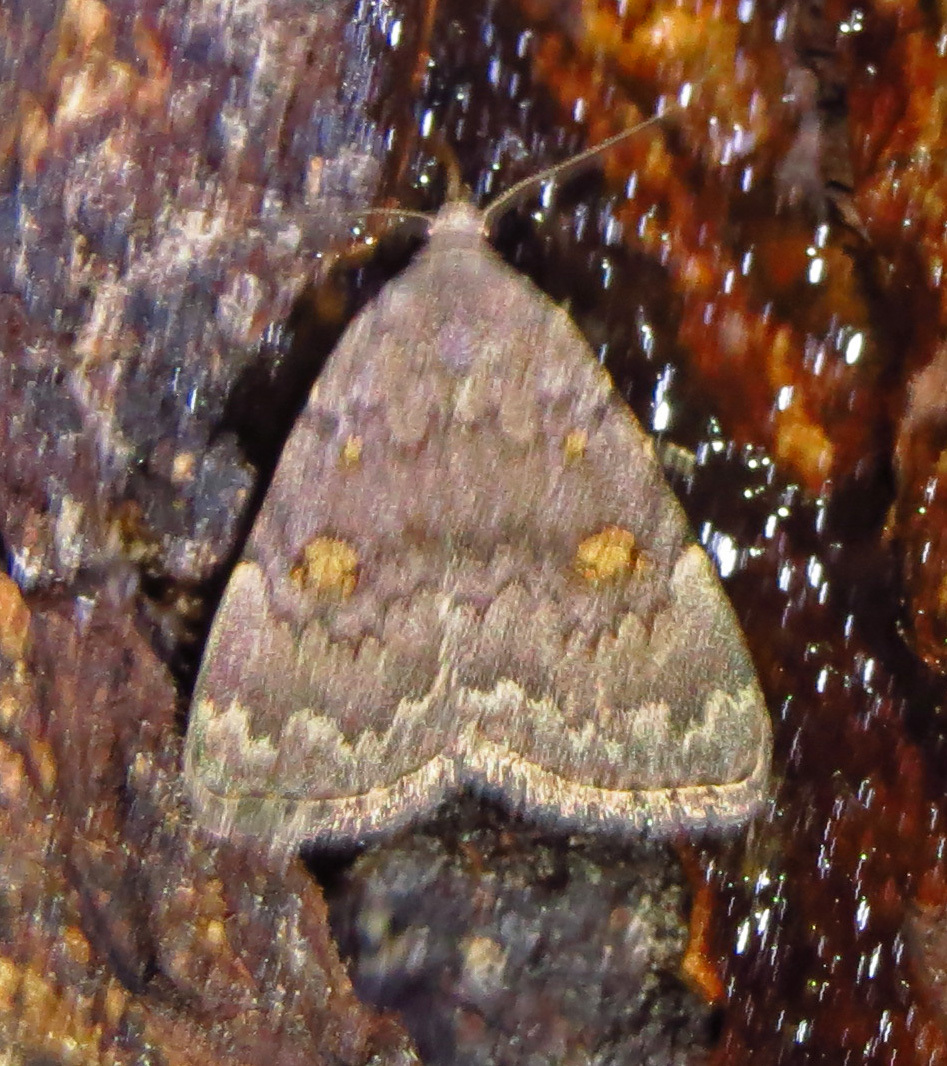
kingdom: Animalia
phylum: Arthropoda
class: Insecta
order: Lepidoptera
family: Erebidae
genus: Idia
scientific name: Idia aemula
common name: Common idia moth
